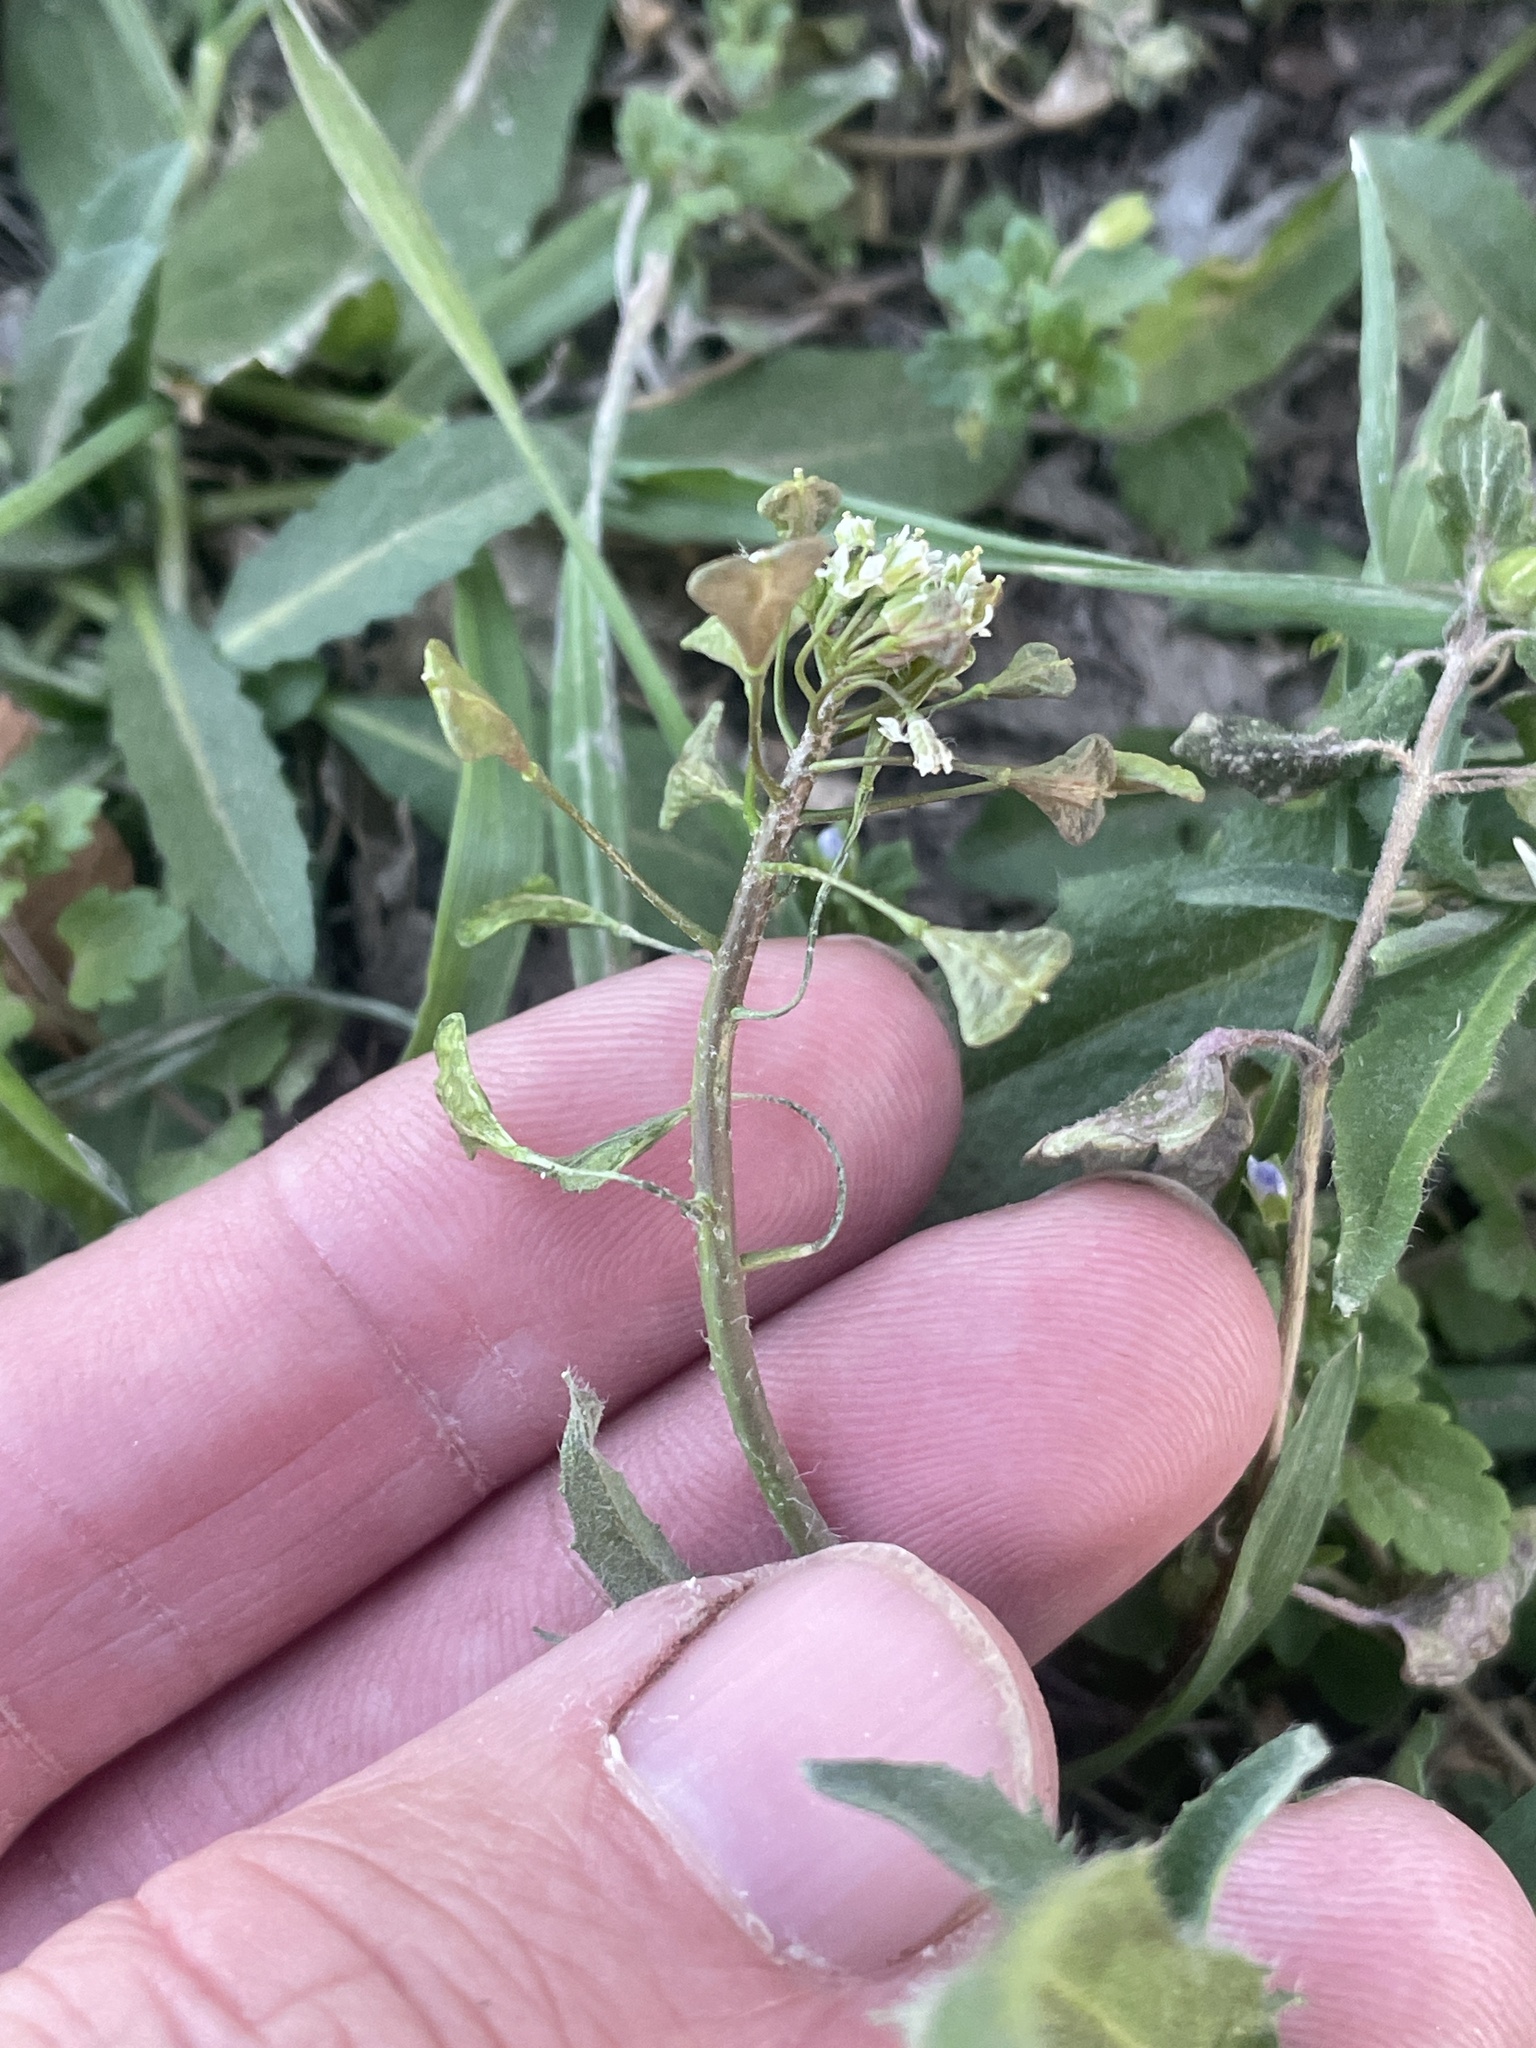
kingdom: Plantae
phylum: Tracheophyta
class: Magnoliopsida
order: Brassicales
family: Brassicaceae
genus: Capsella
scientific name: Capsella bursa-pastoris
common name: Shepherd's purse
